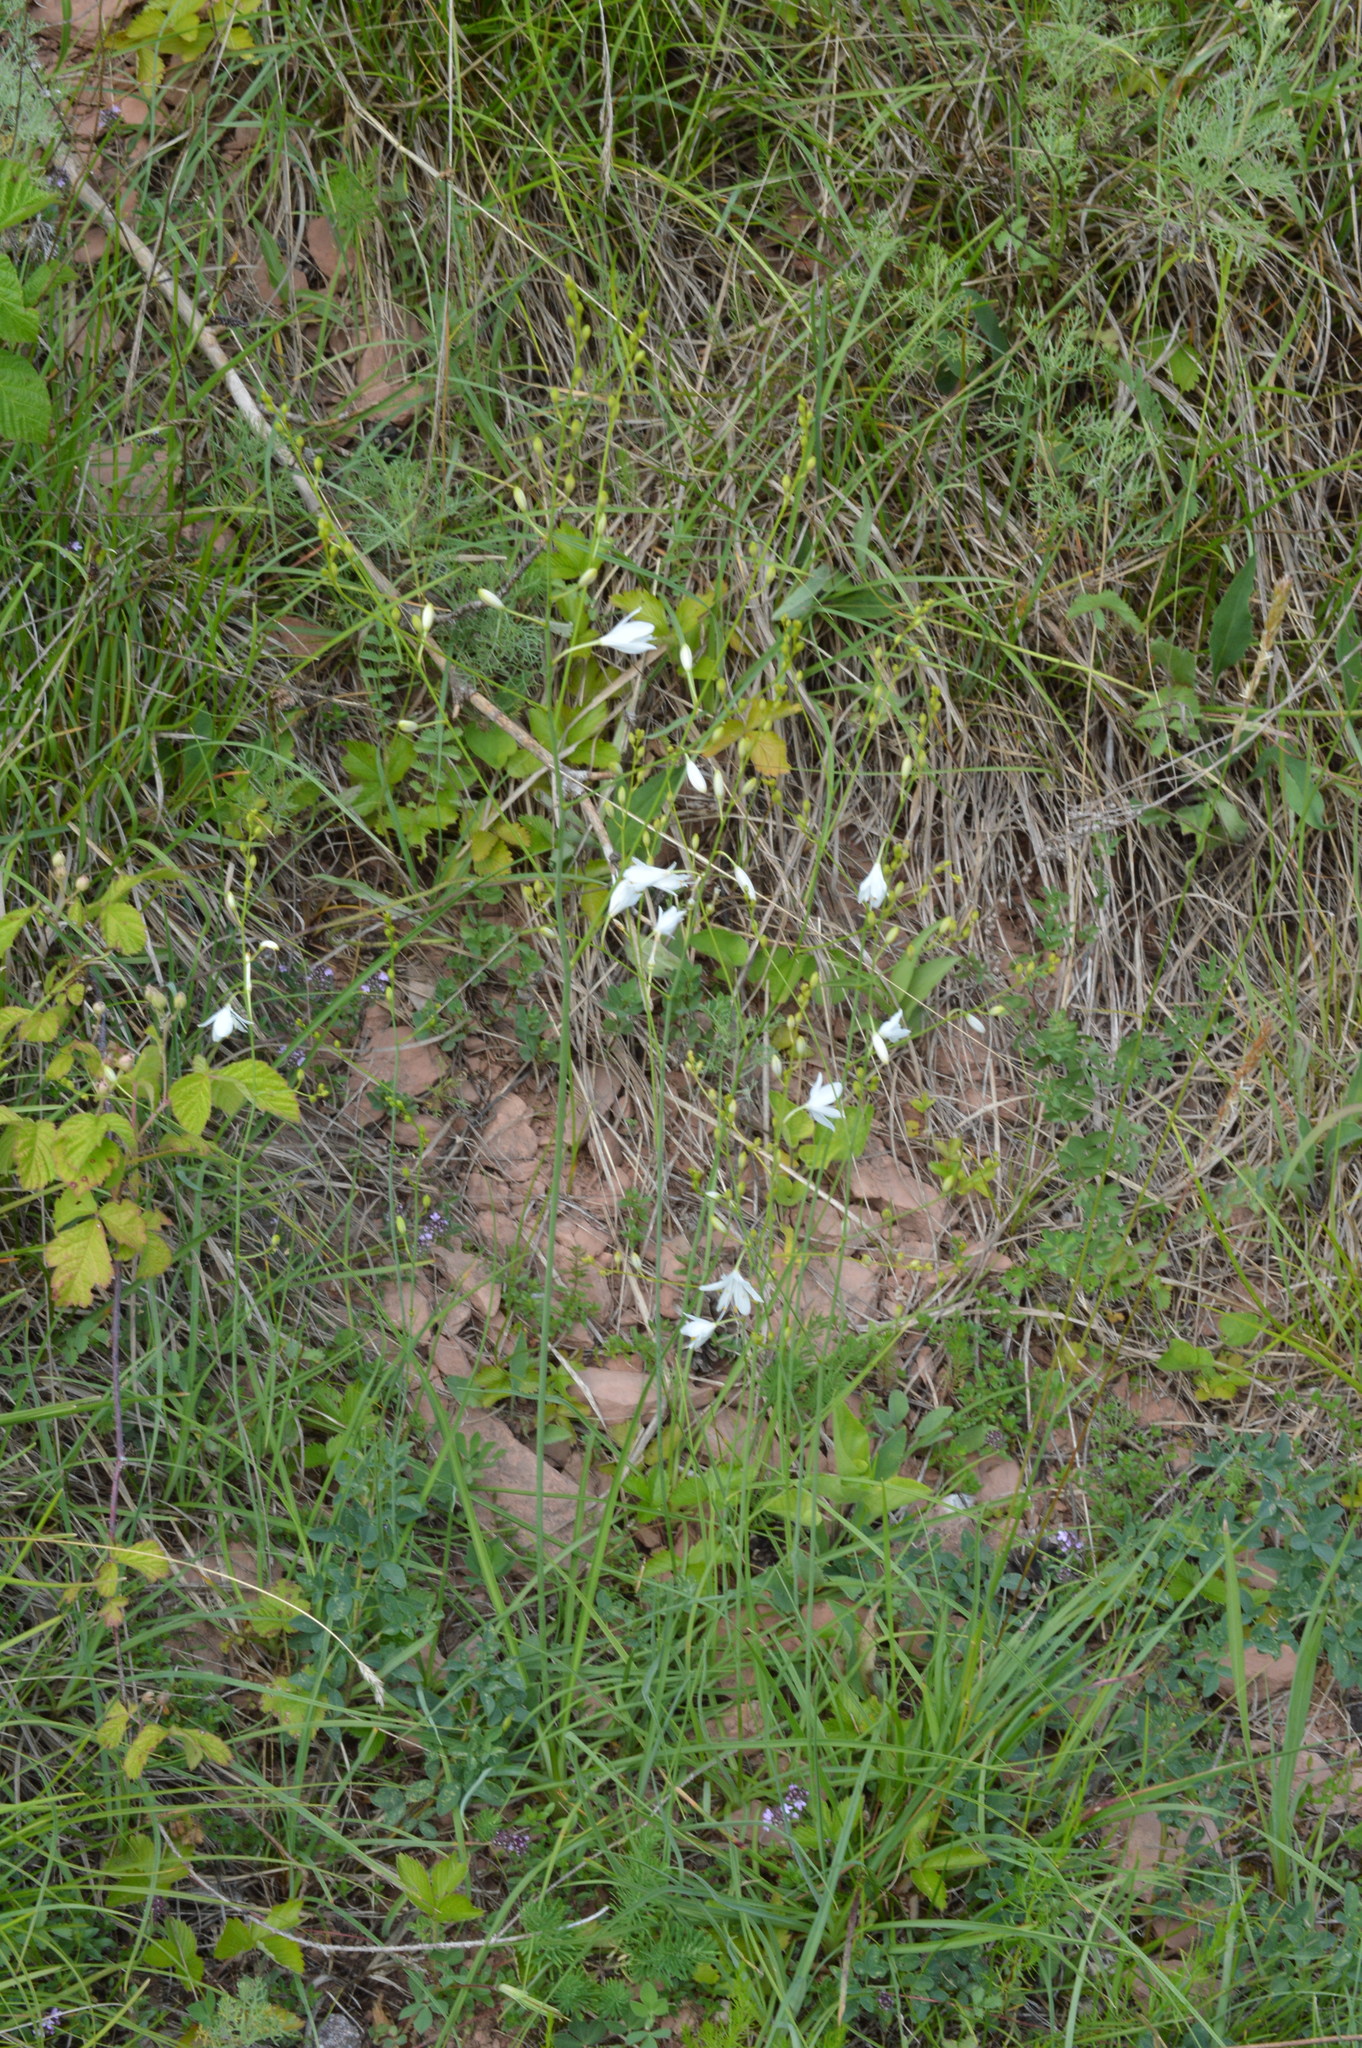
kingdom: Plantae
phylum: Tracheophyta
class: Liliopsida
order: Asparagales
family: Asparagaceae
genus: Anthericum
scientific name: Anthericum ramosum
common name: Branched st. bernard's-lily
